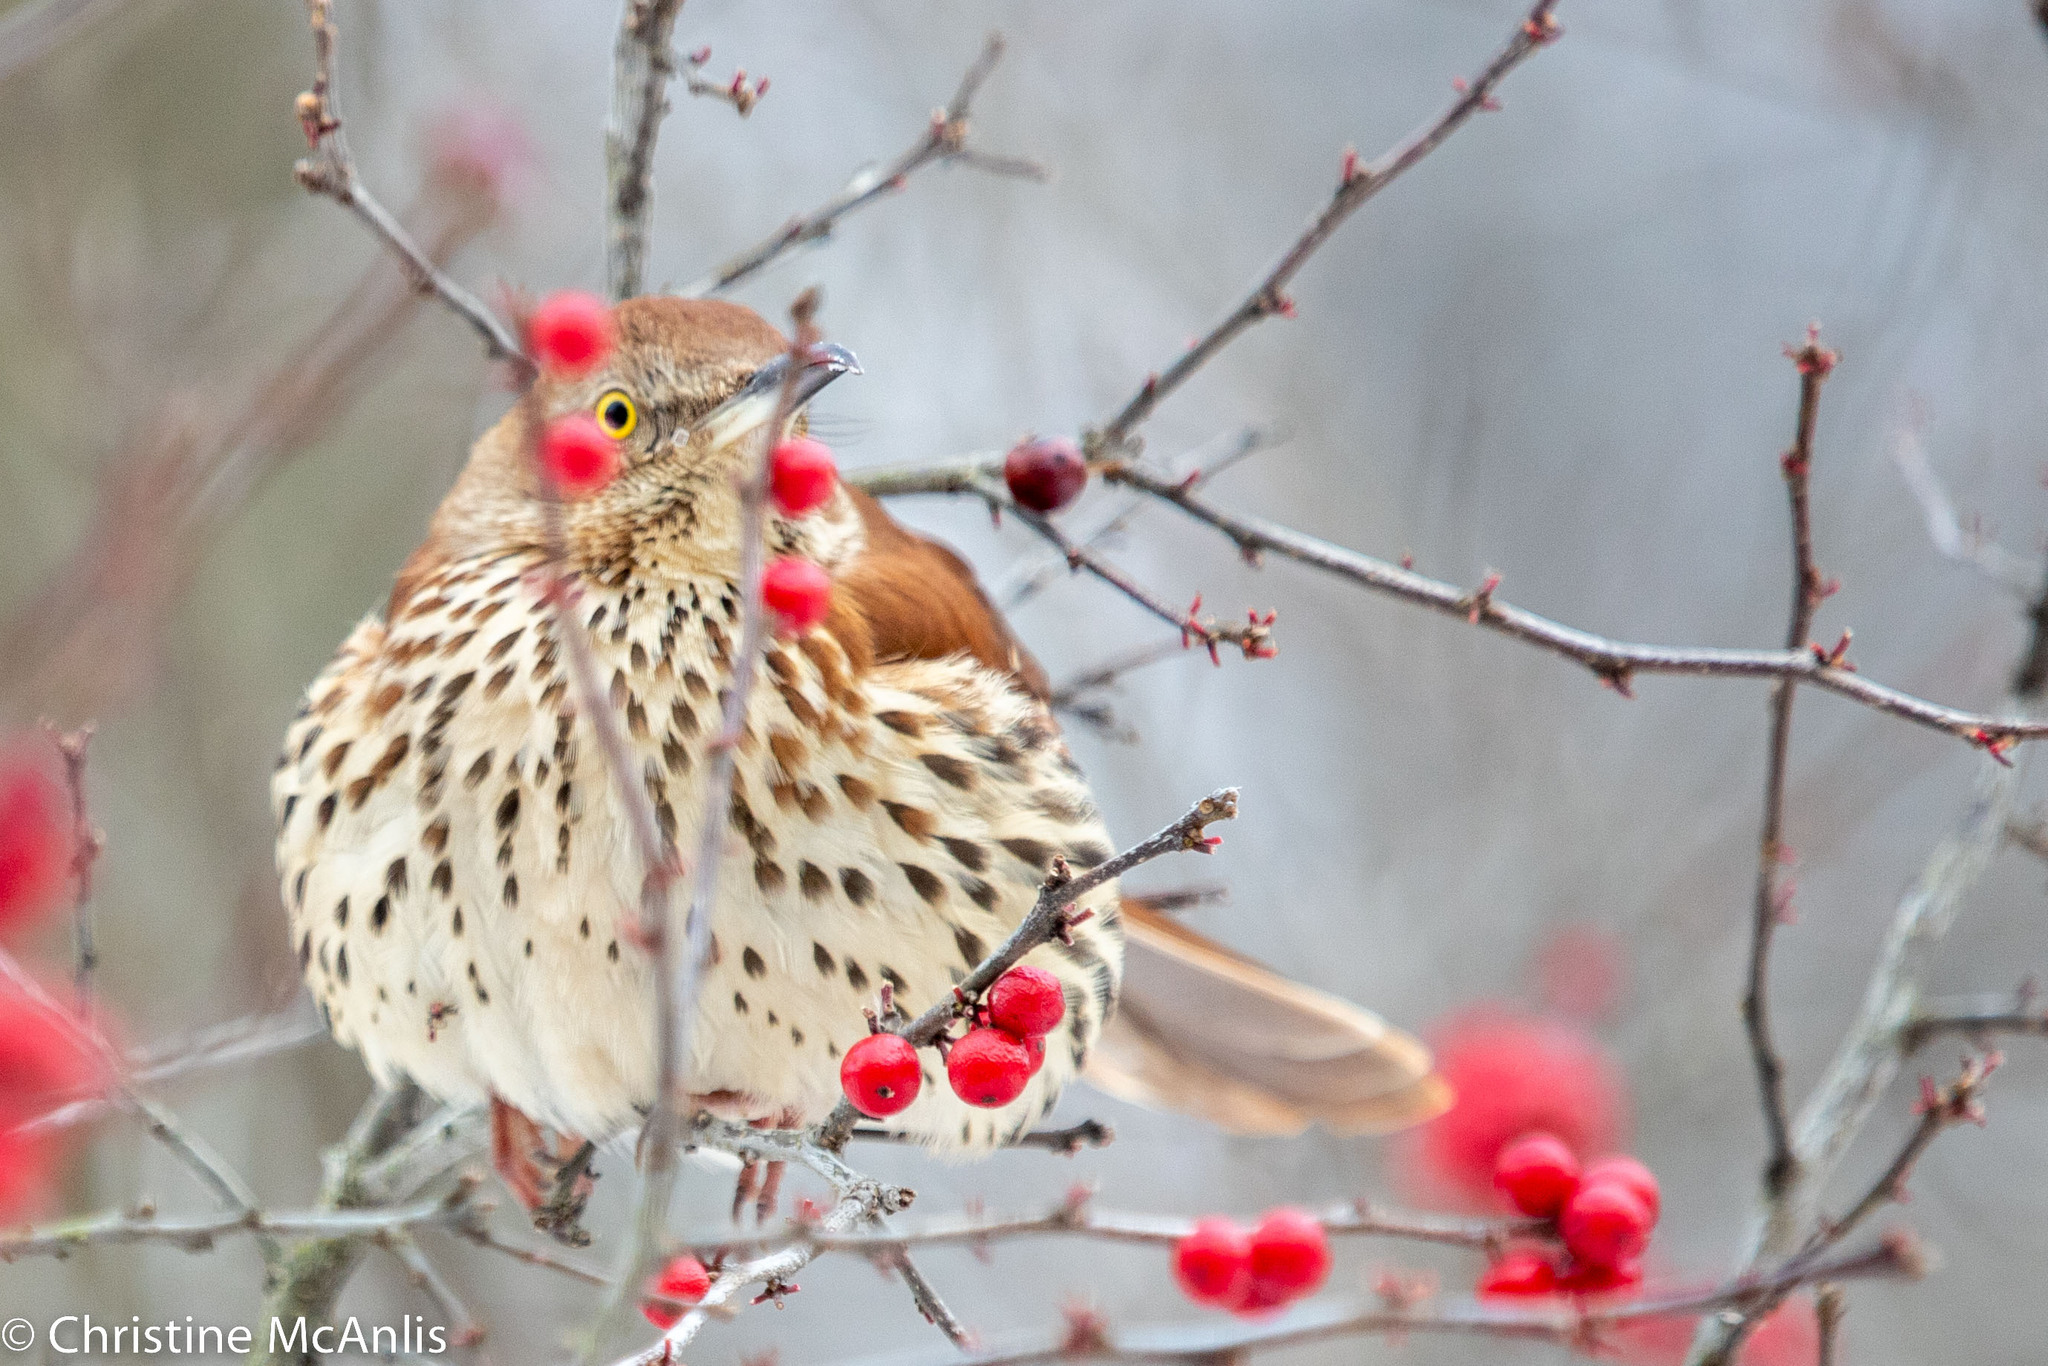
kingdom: Animalia
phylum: Chordata
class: Aves
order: Passeriformes
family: Mimidae
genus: Toxostoma
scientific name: Toxostoma rufum
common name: Brown thrasher
